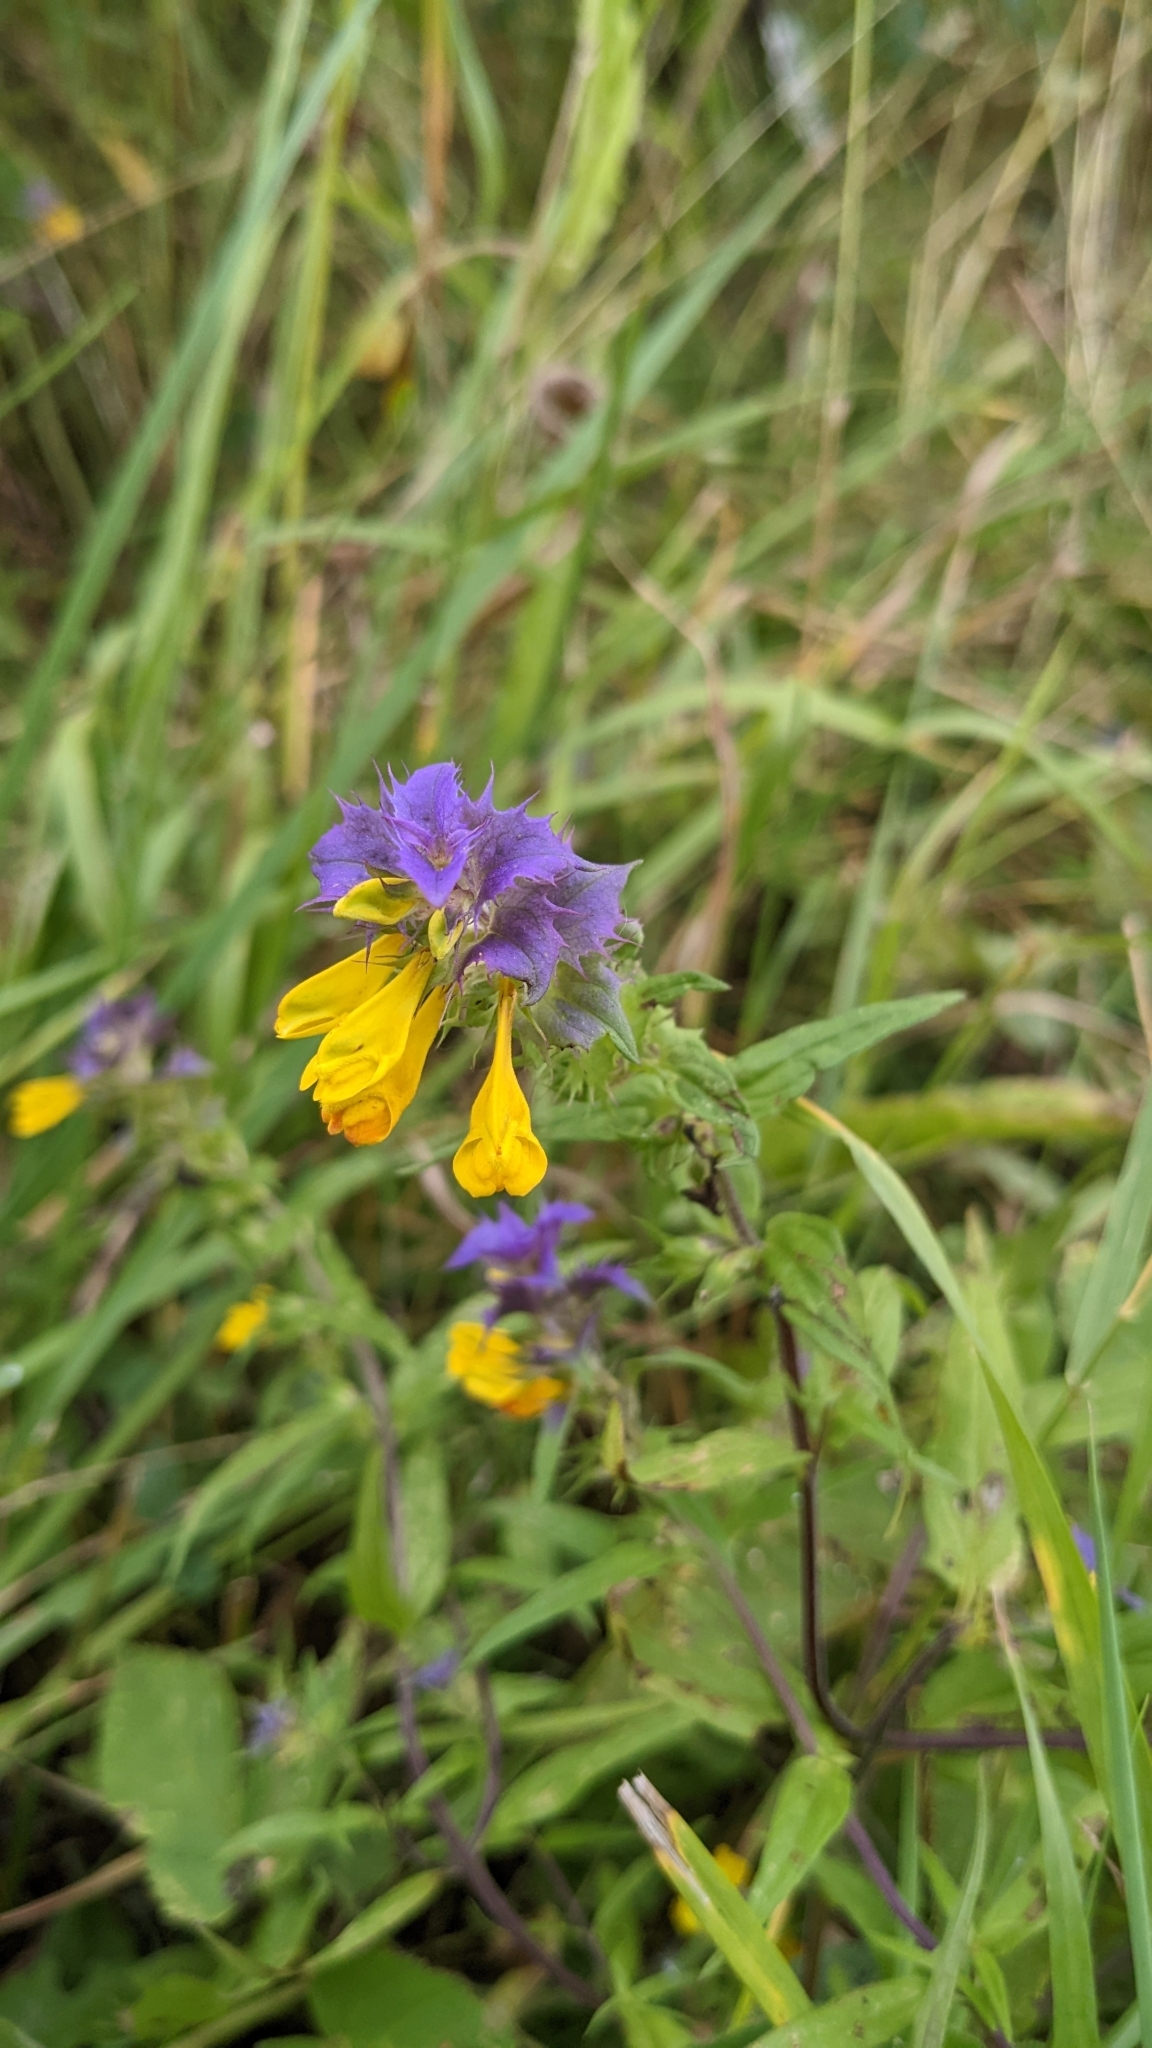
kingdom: Plantae
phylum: Tracheophyta
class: Magnoliopsida
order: Lamiales
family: Orobanchaceae
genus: Melampyrum
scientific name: Melampyrum nemorosum
